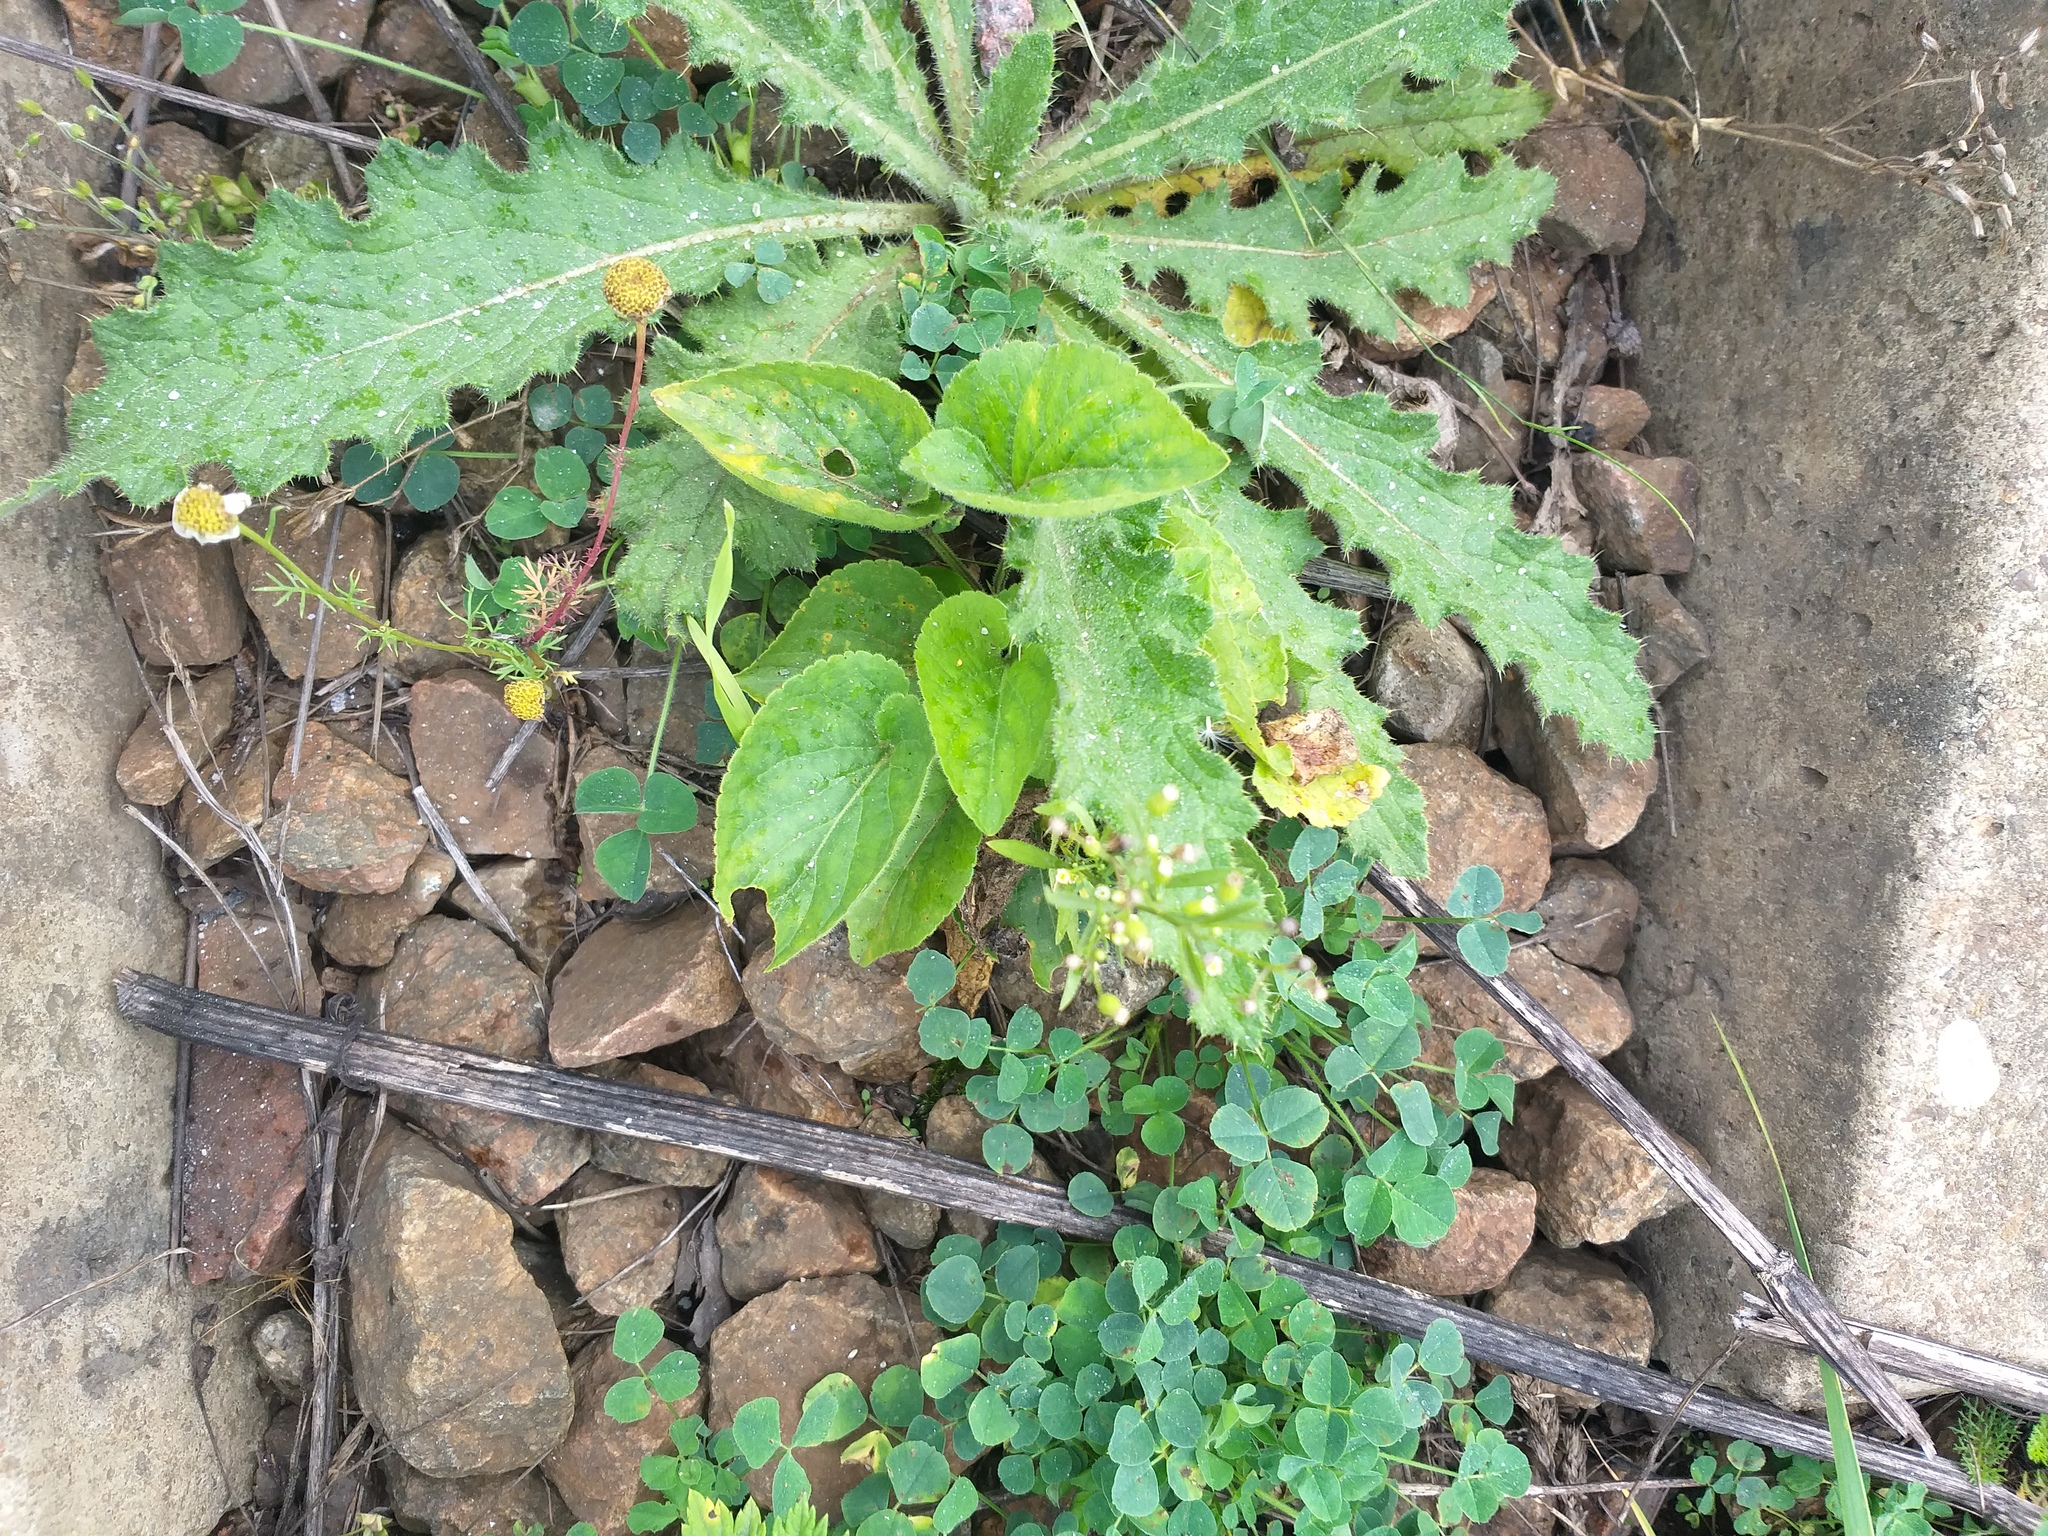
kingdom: Plantae
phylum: Tracheophyta
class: Magnoliopsida
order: Malpighiales
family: Violaceae
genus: Viola
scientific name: Viola hirta
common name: Hairy violet
